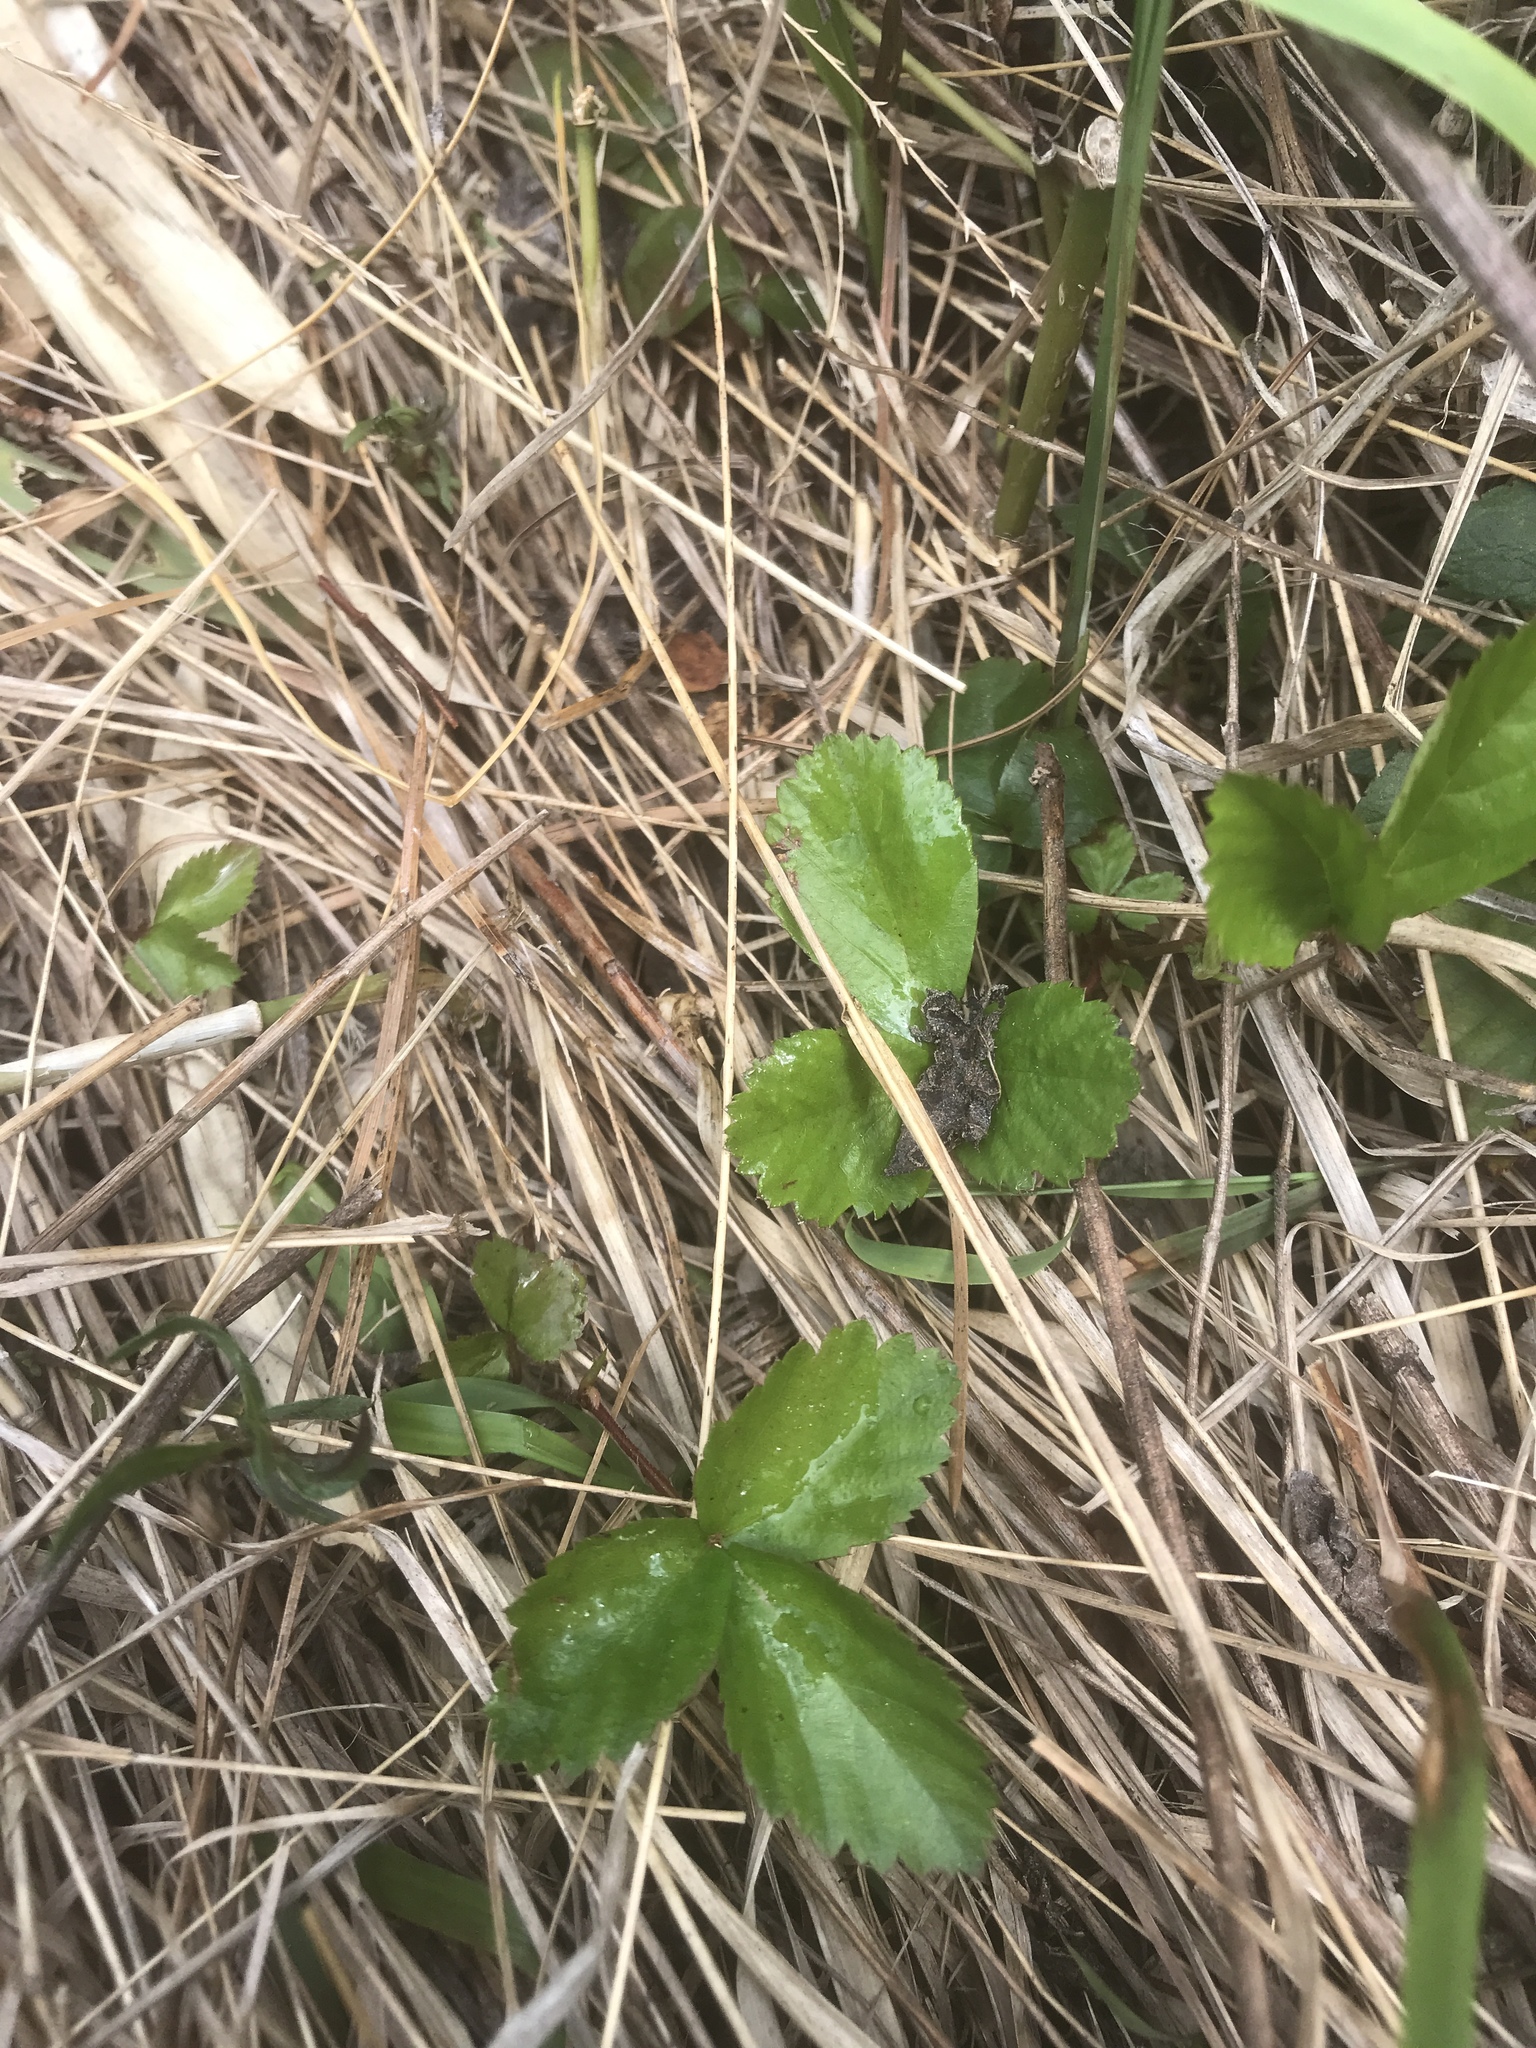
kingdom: Plantae
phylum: Tracheophyta
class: Magnoliopsida
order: Rosales
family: Rosaceae
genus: Rubus
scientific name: Rubus flagellaris
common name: American dewberry
